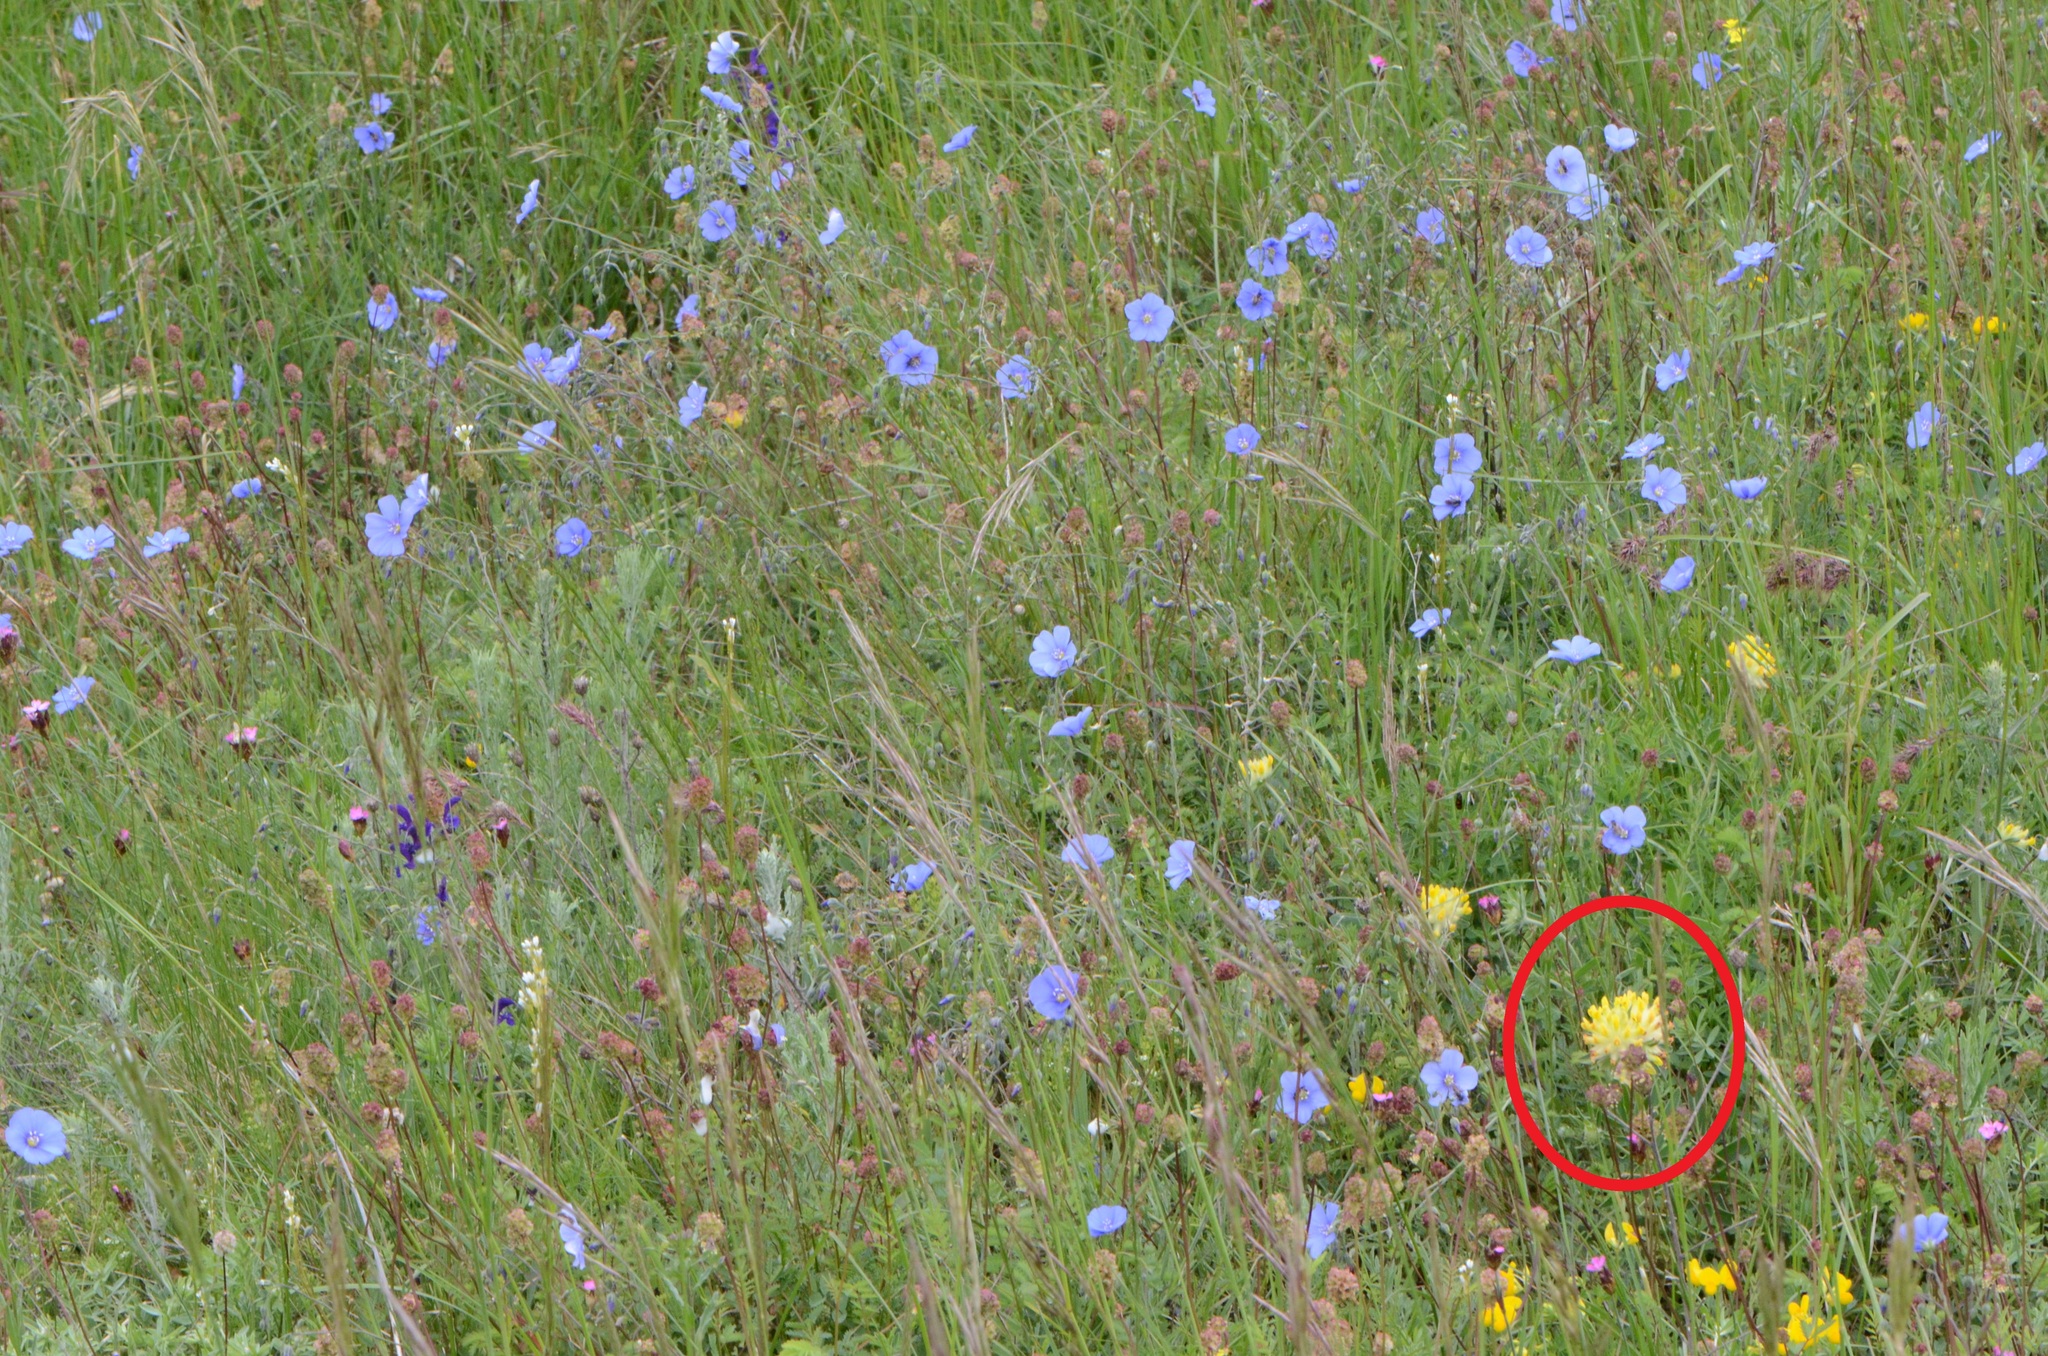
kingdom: Plantae
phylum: Tracheophyta
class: Magnoliopsida
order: Fabales
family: Fabaceae
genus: Anthyllis
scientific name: Anthyllis vulneraria
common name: Kidney vetch
